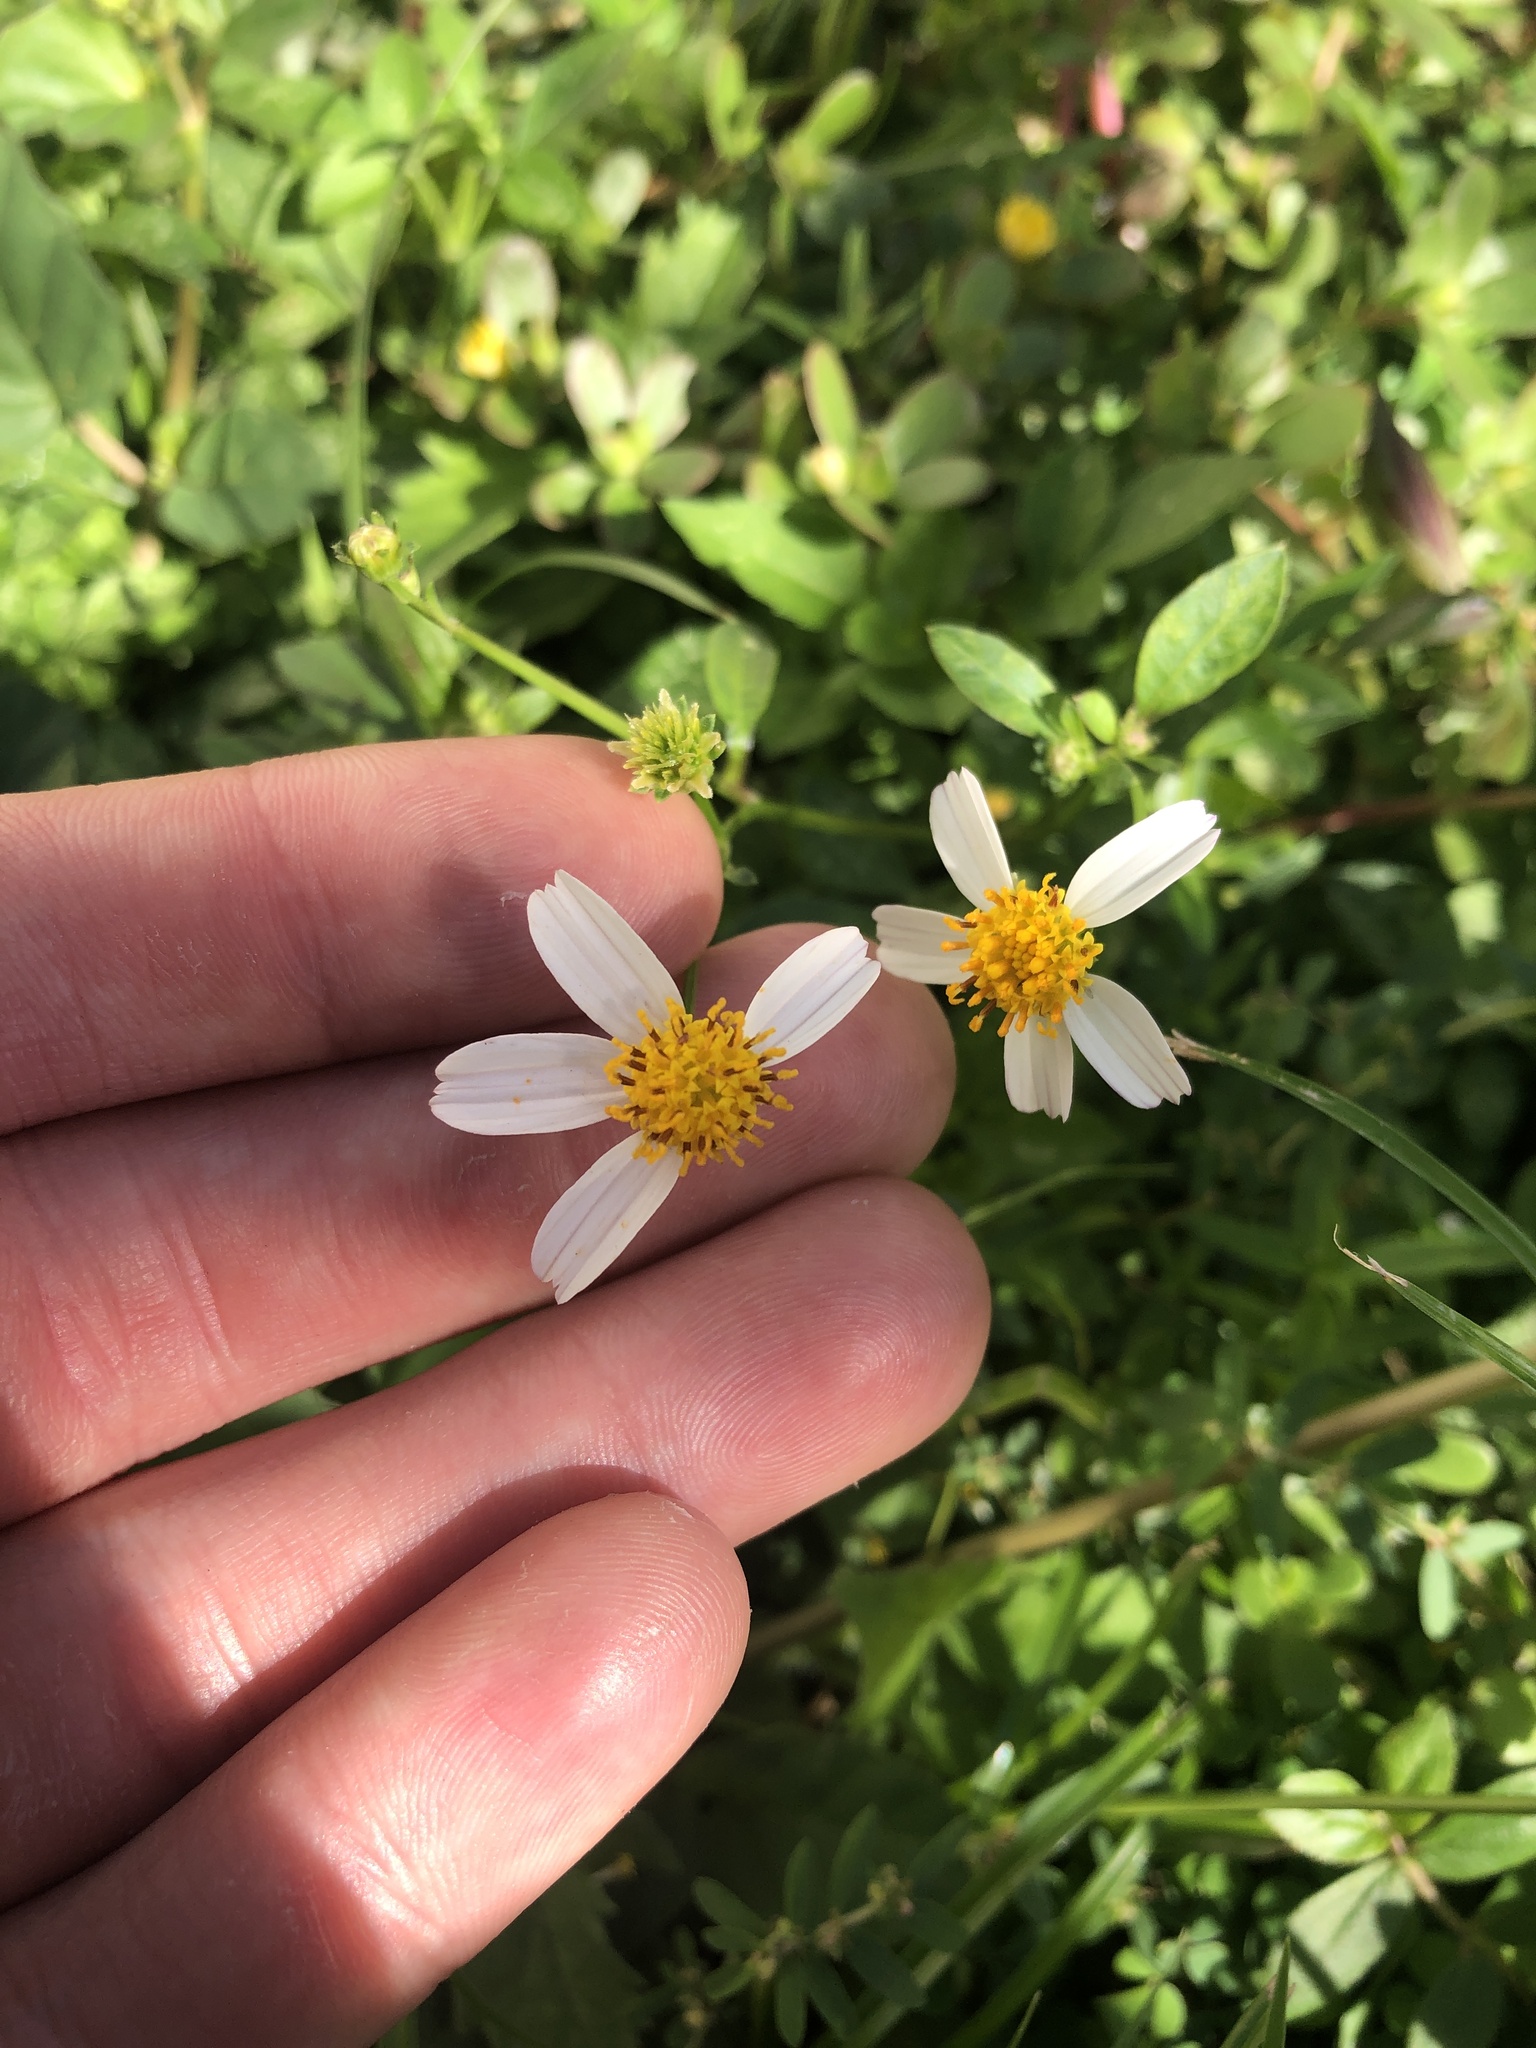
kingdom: Plantae
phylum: Tracheophyta
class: Magnoliopsida
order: Asterales
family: Asteraceae
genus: Bidens
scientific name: Bidens alba
